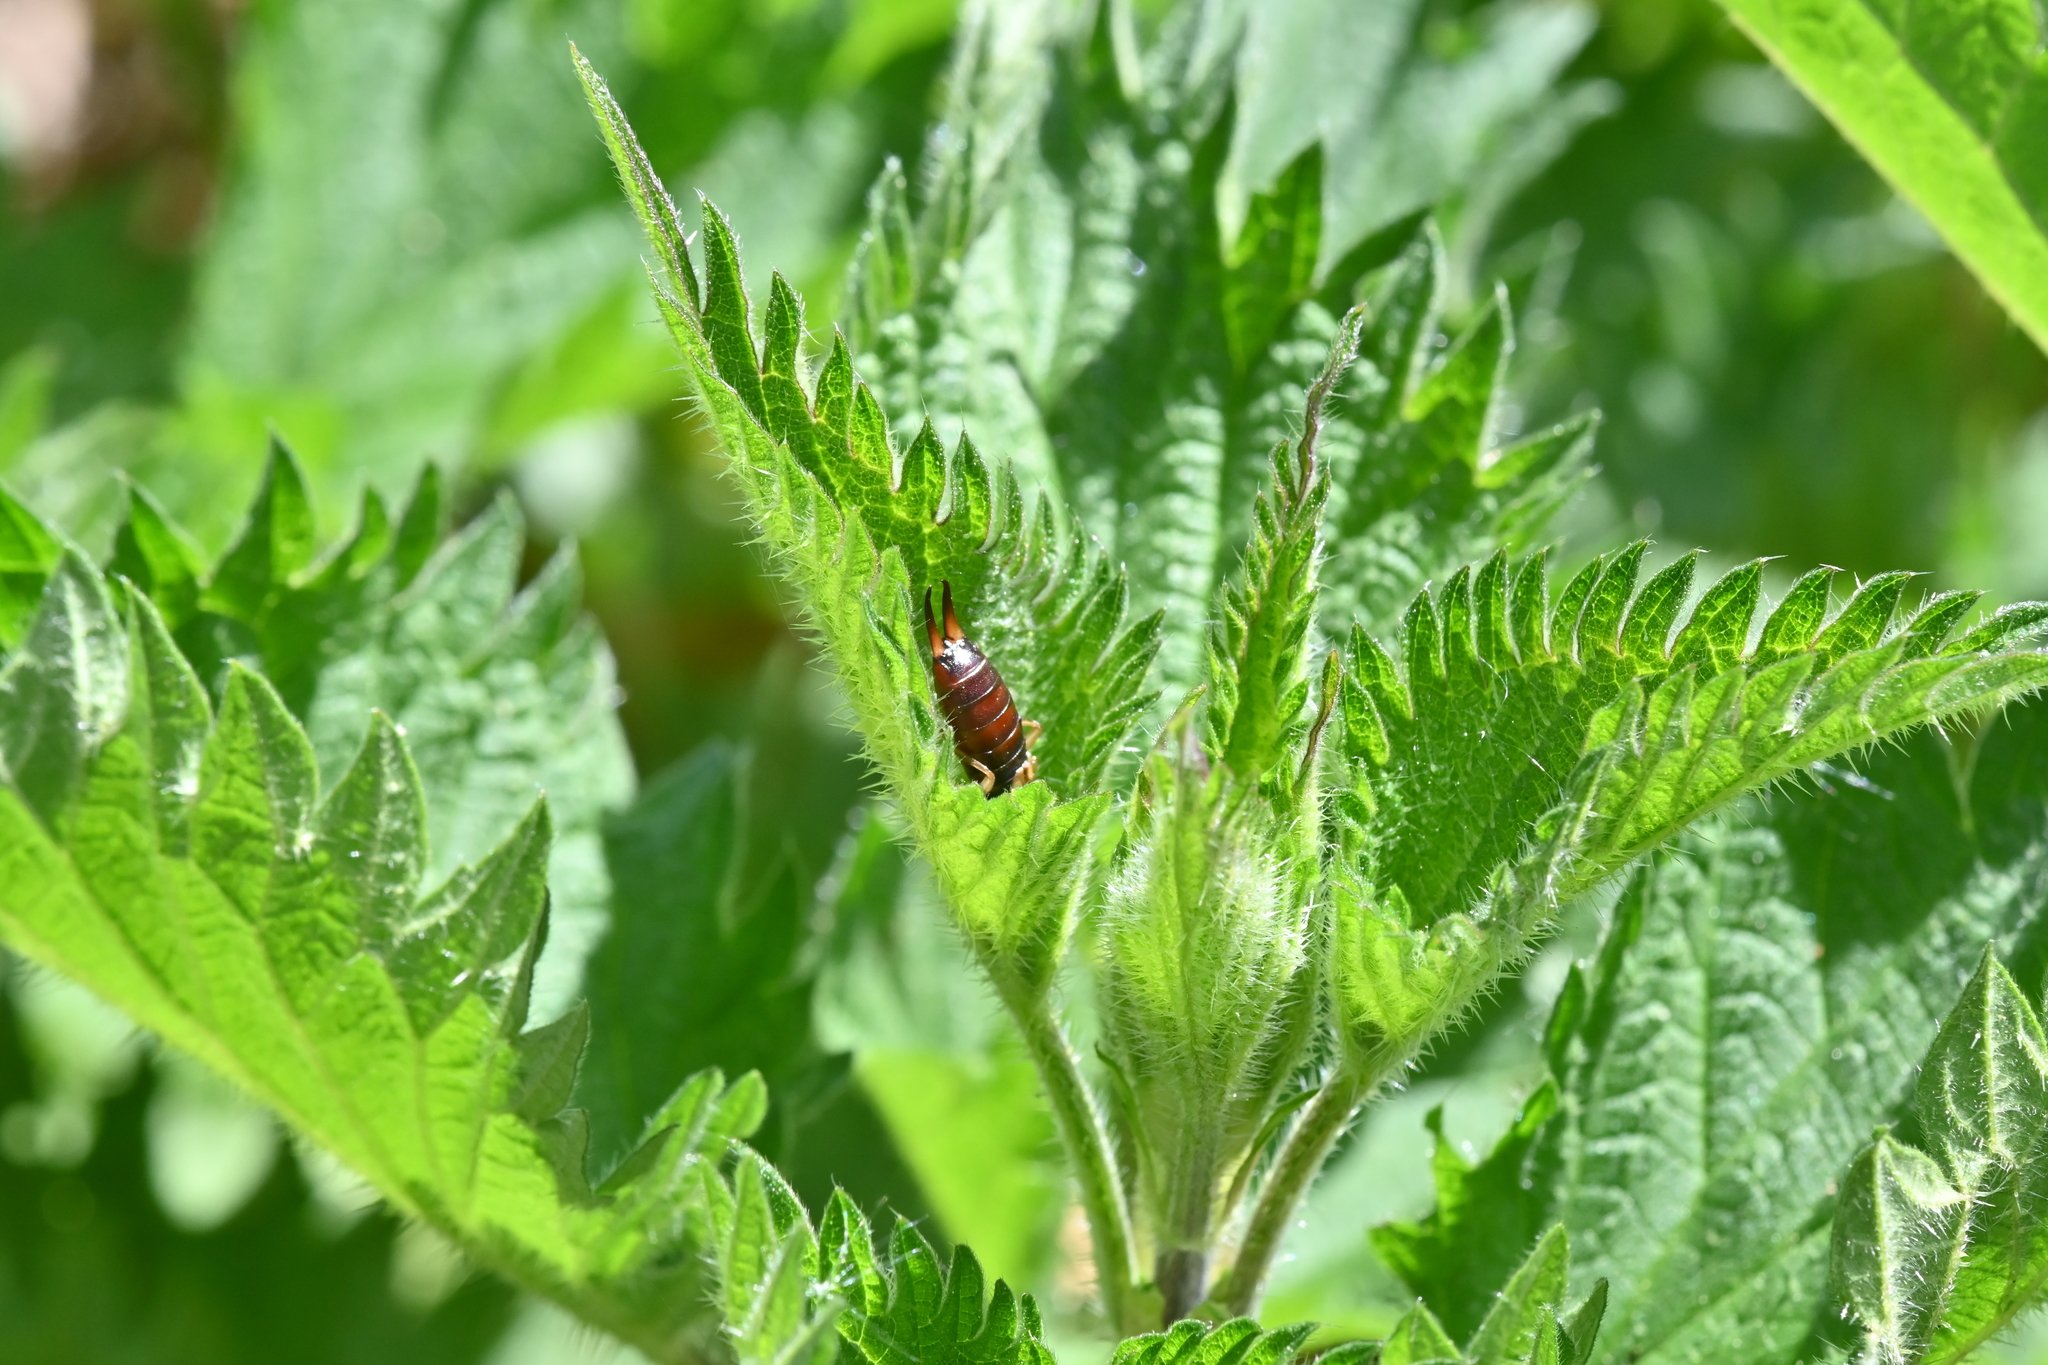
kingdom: Animalia
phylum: Arthropoda
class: Insecta
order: Dermaptera
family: Forficulidae
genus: Forficula
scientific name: Forficula
